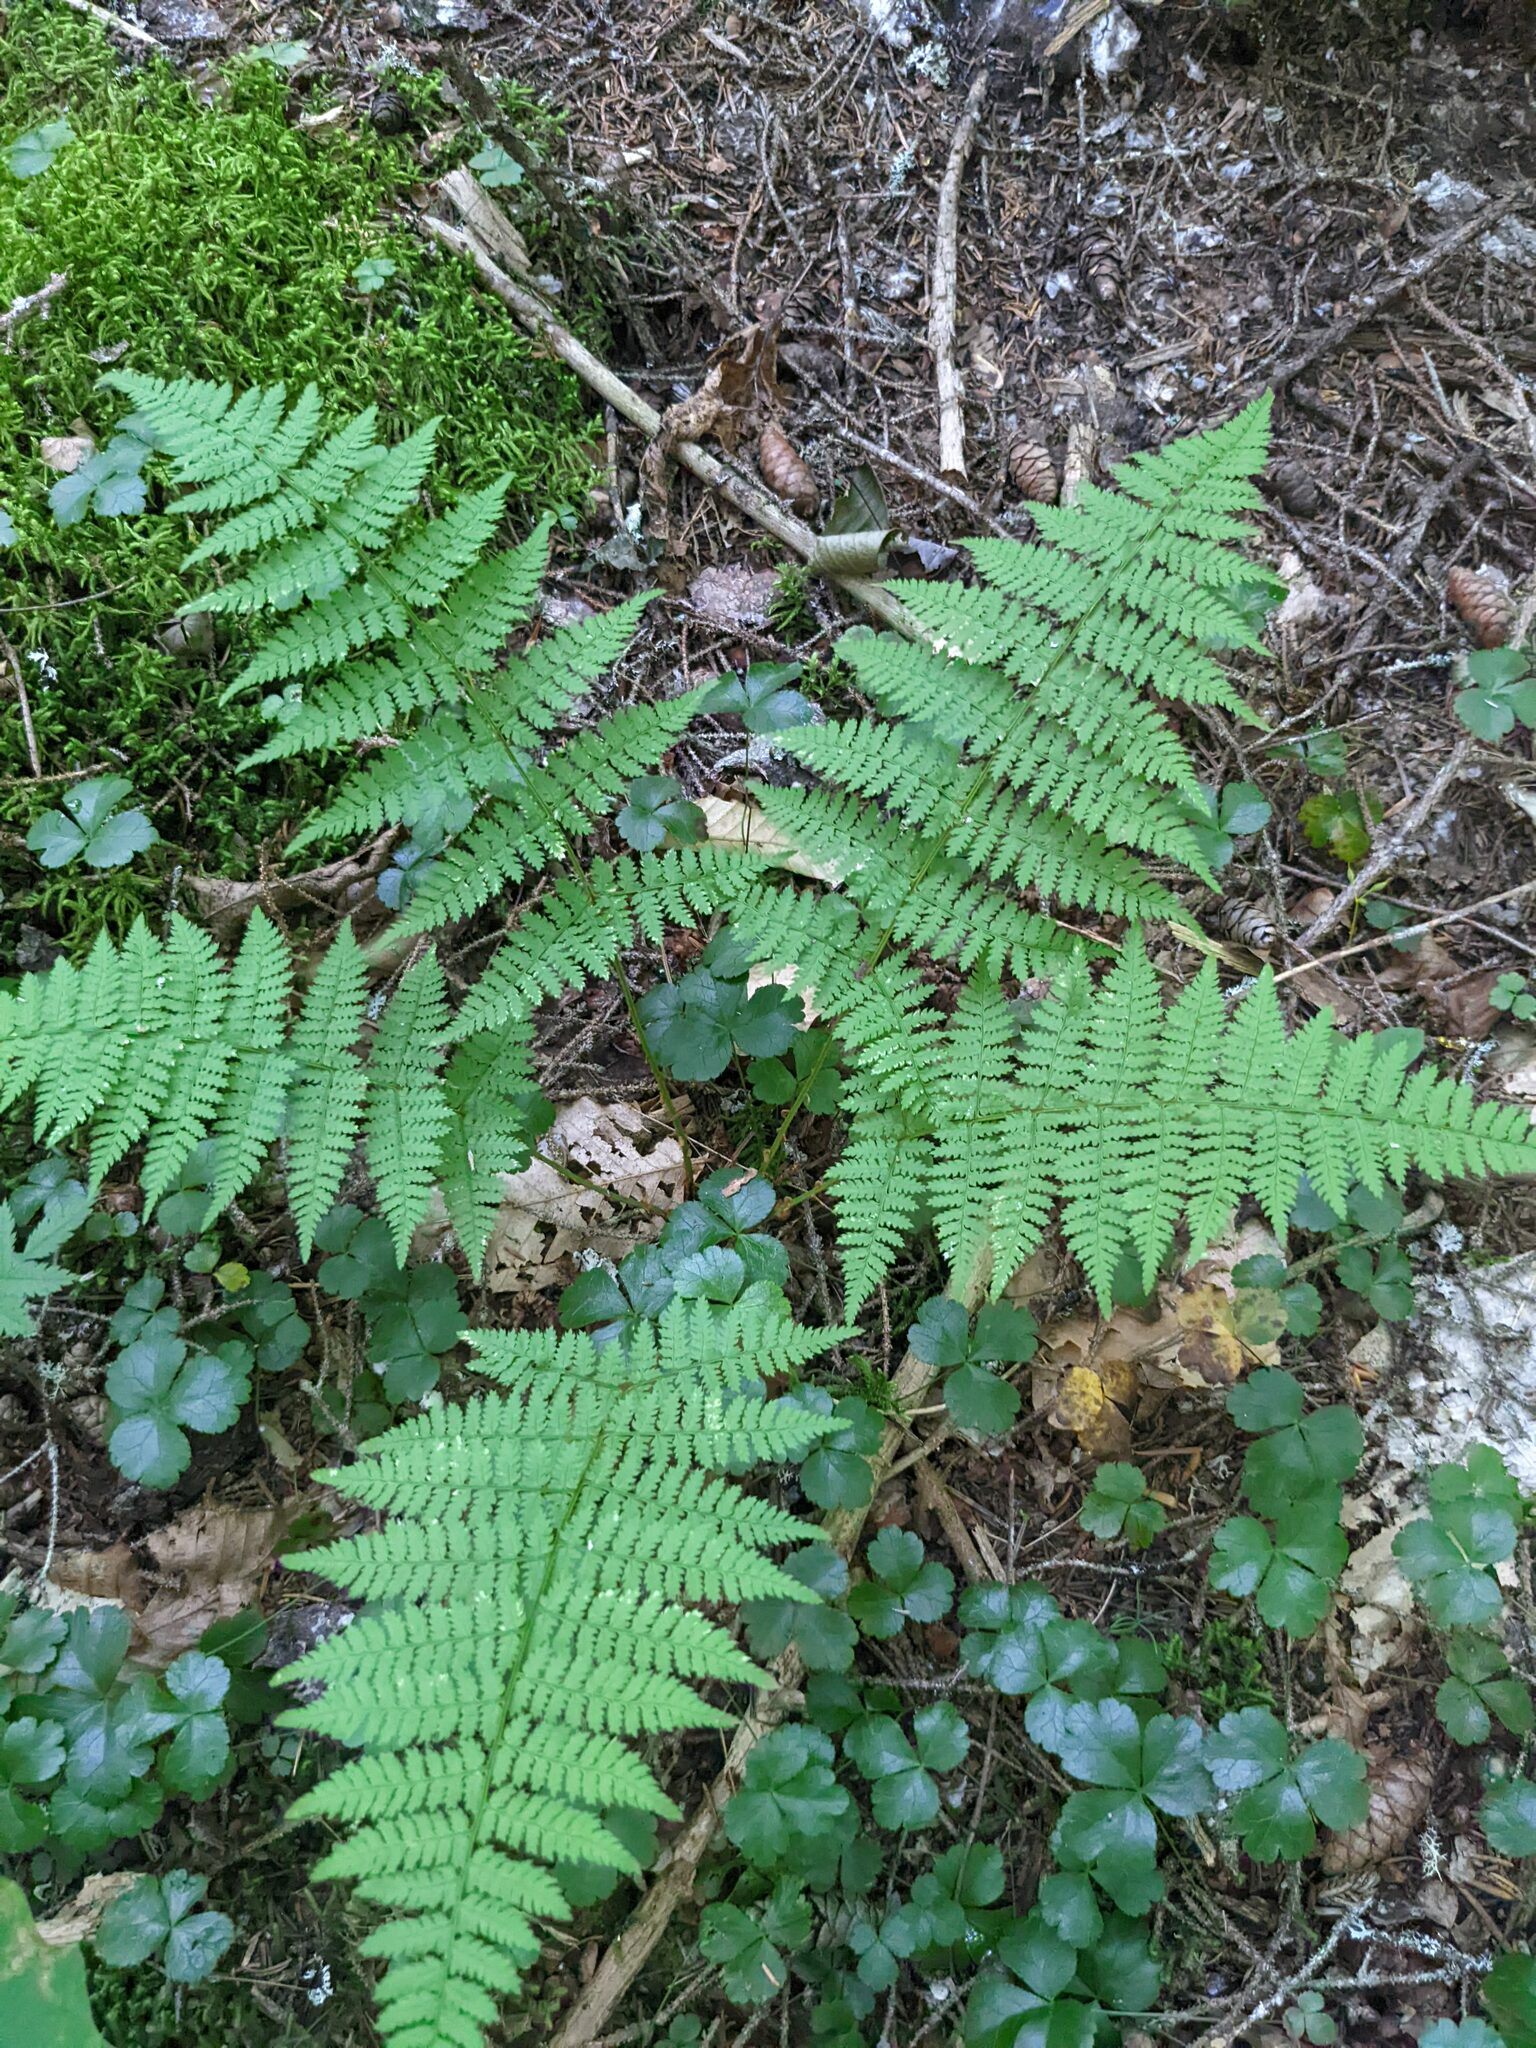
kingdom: Plantae
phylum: Tracheophyta
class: Polypodiopsida
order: Polypodiales
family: Dryopteridaceae
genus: Dryopteris
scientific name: Dryopteris intermedia
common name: Evergreen wood fern
